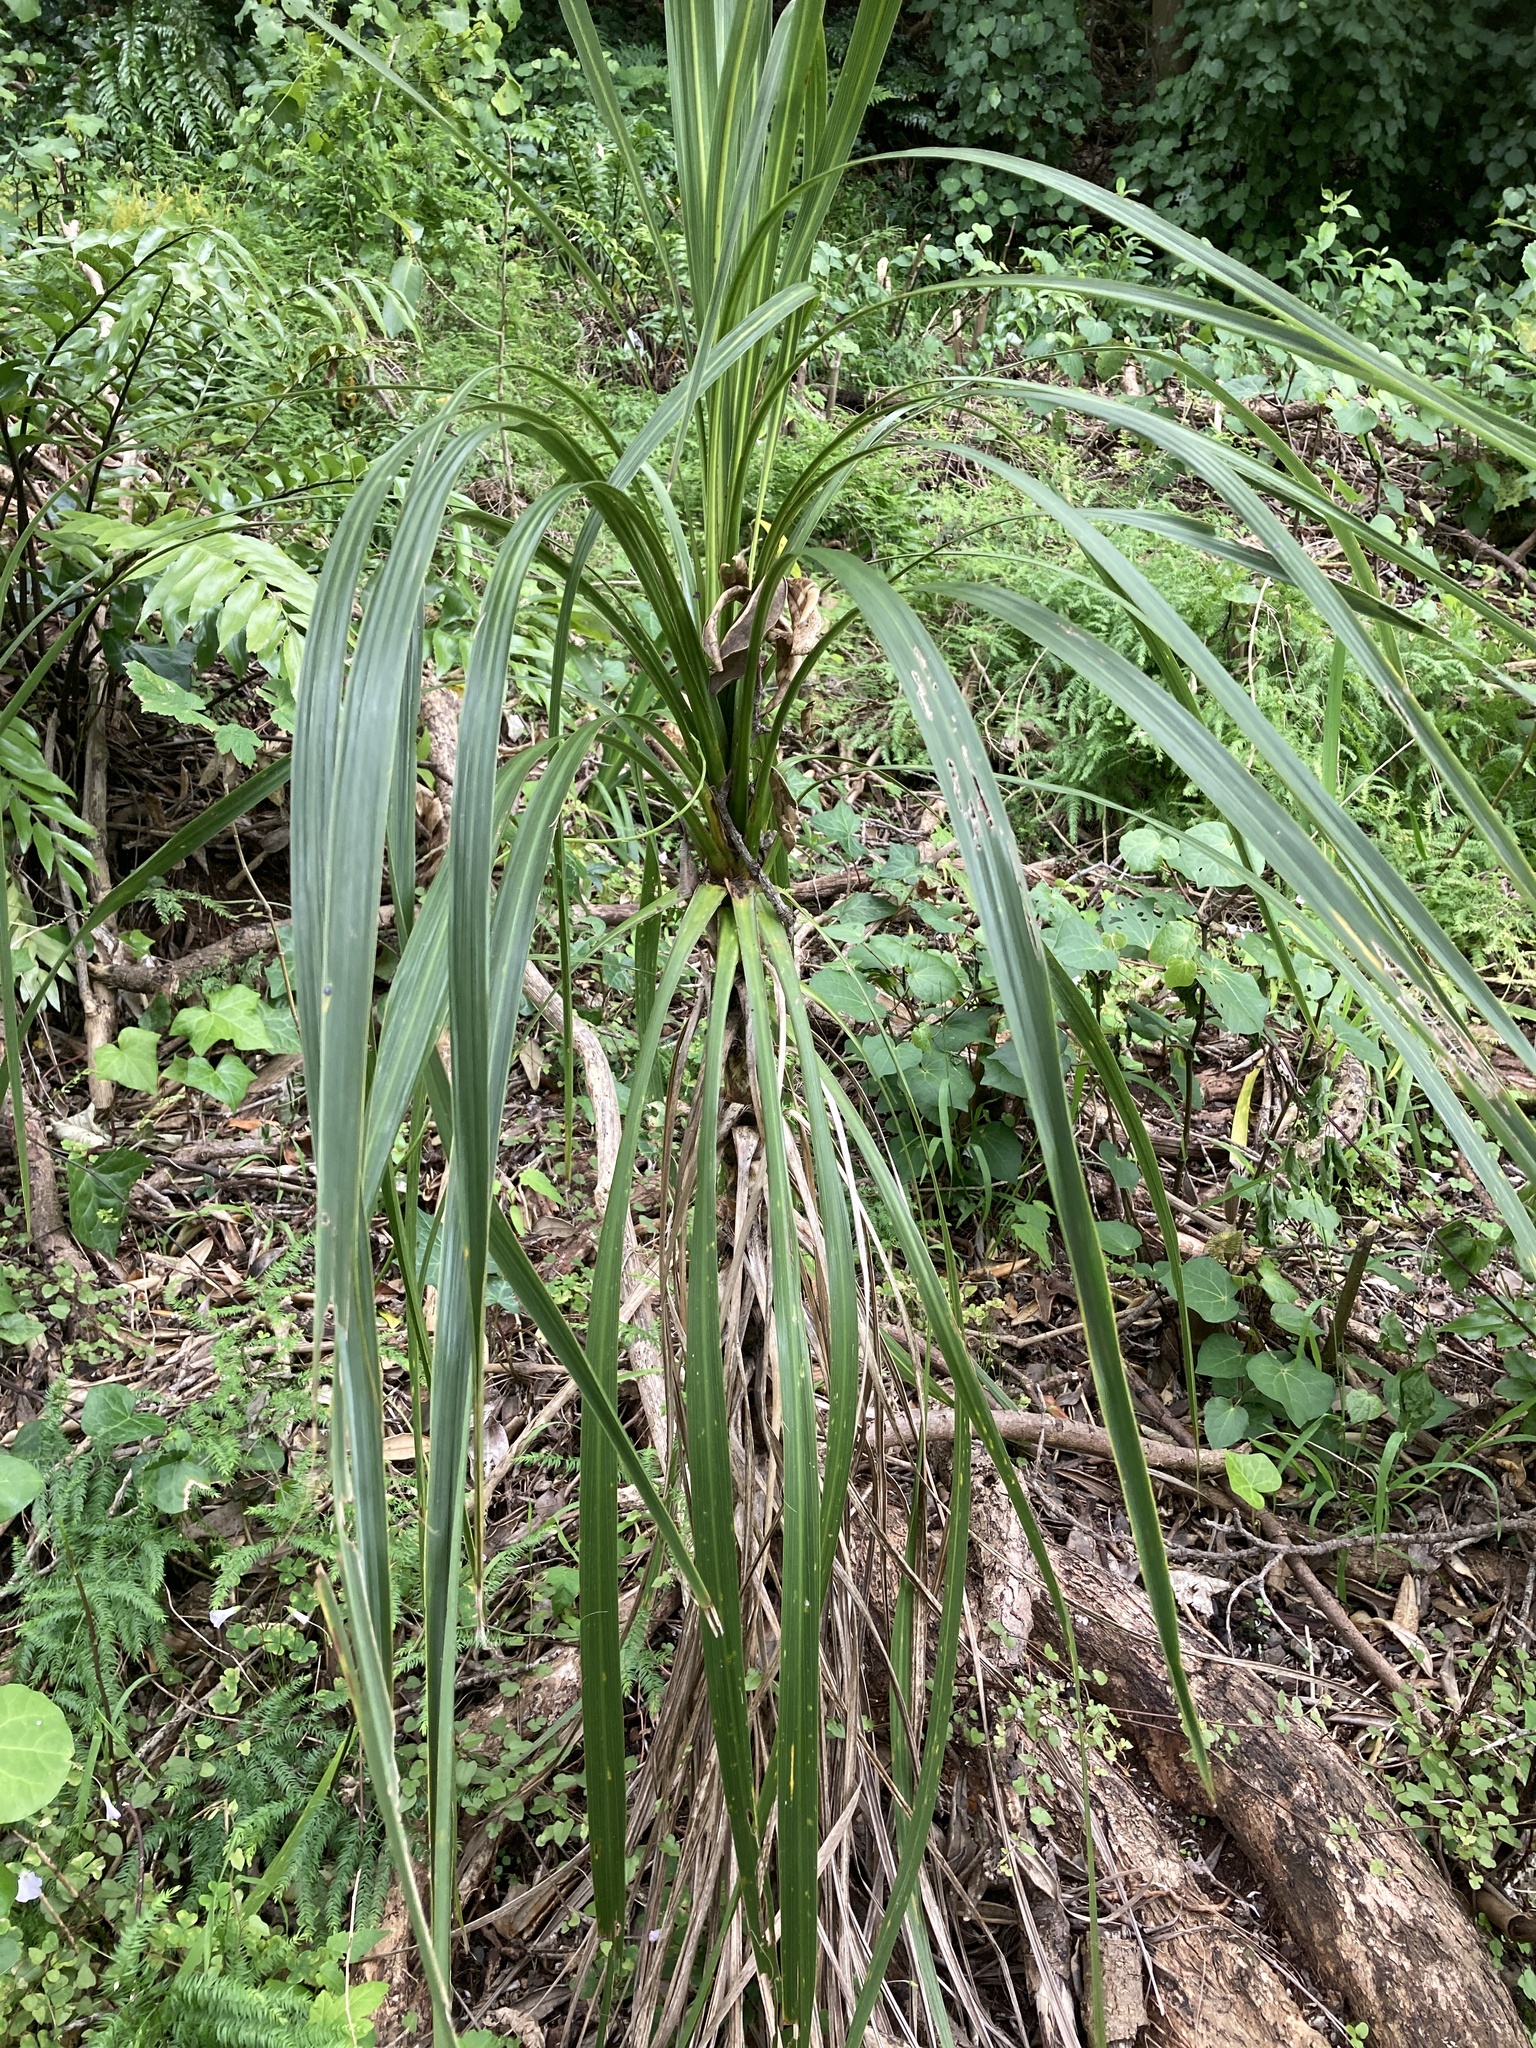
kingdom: Plantae
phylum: Tracheophyta
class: Liliopsida
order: Asparagales
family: Asparagaceae
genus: Cordyline
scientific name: Cordyline australis
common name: Cabbage-palm
